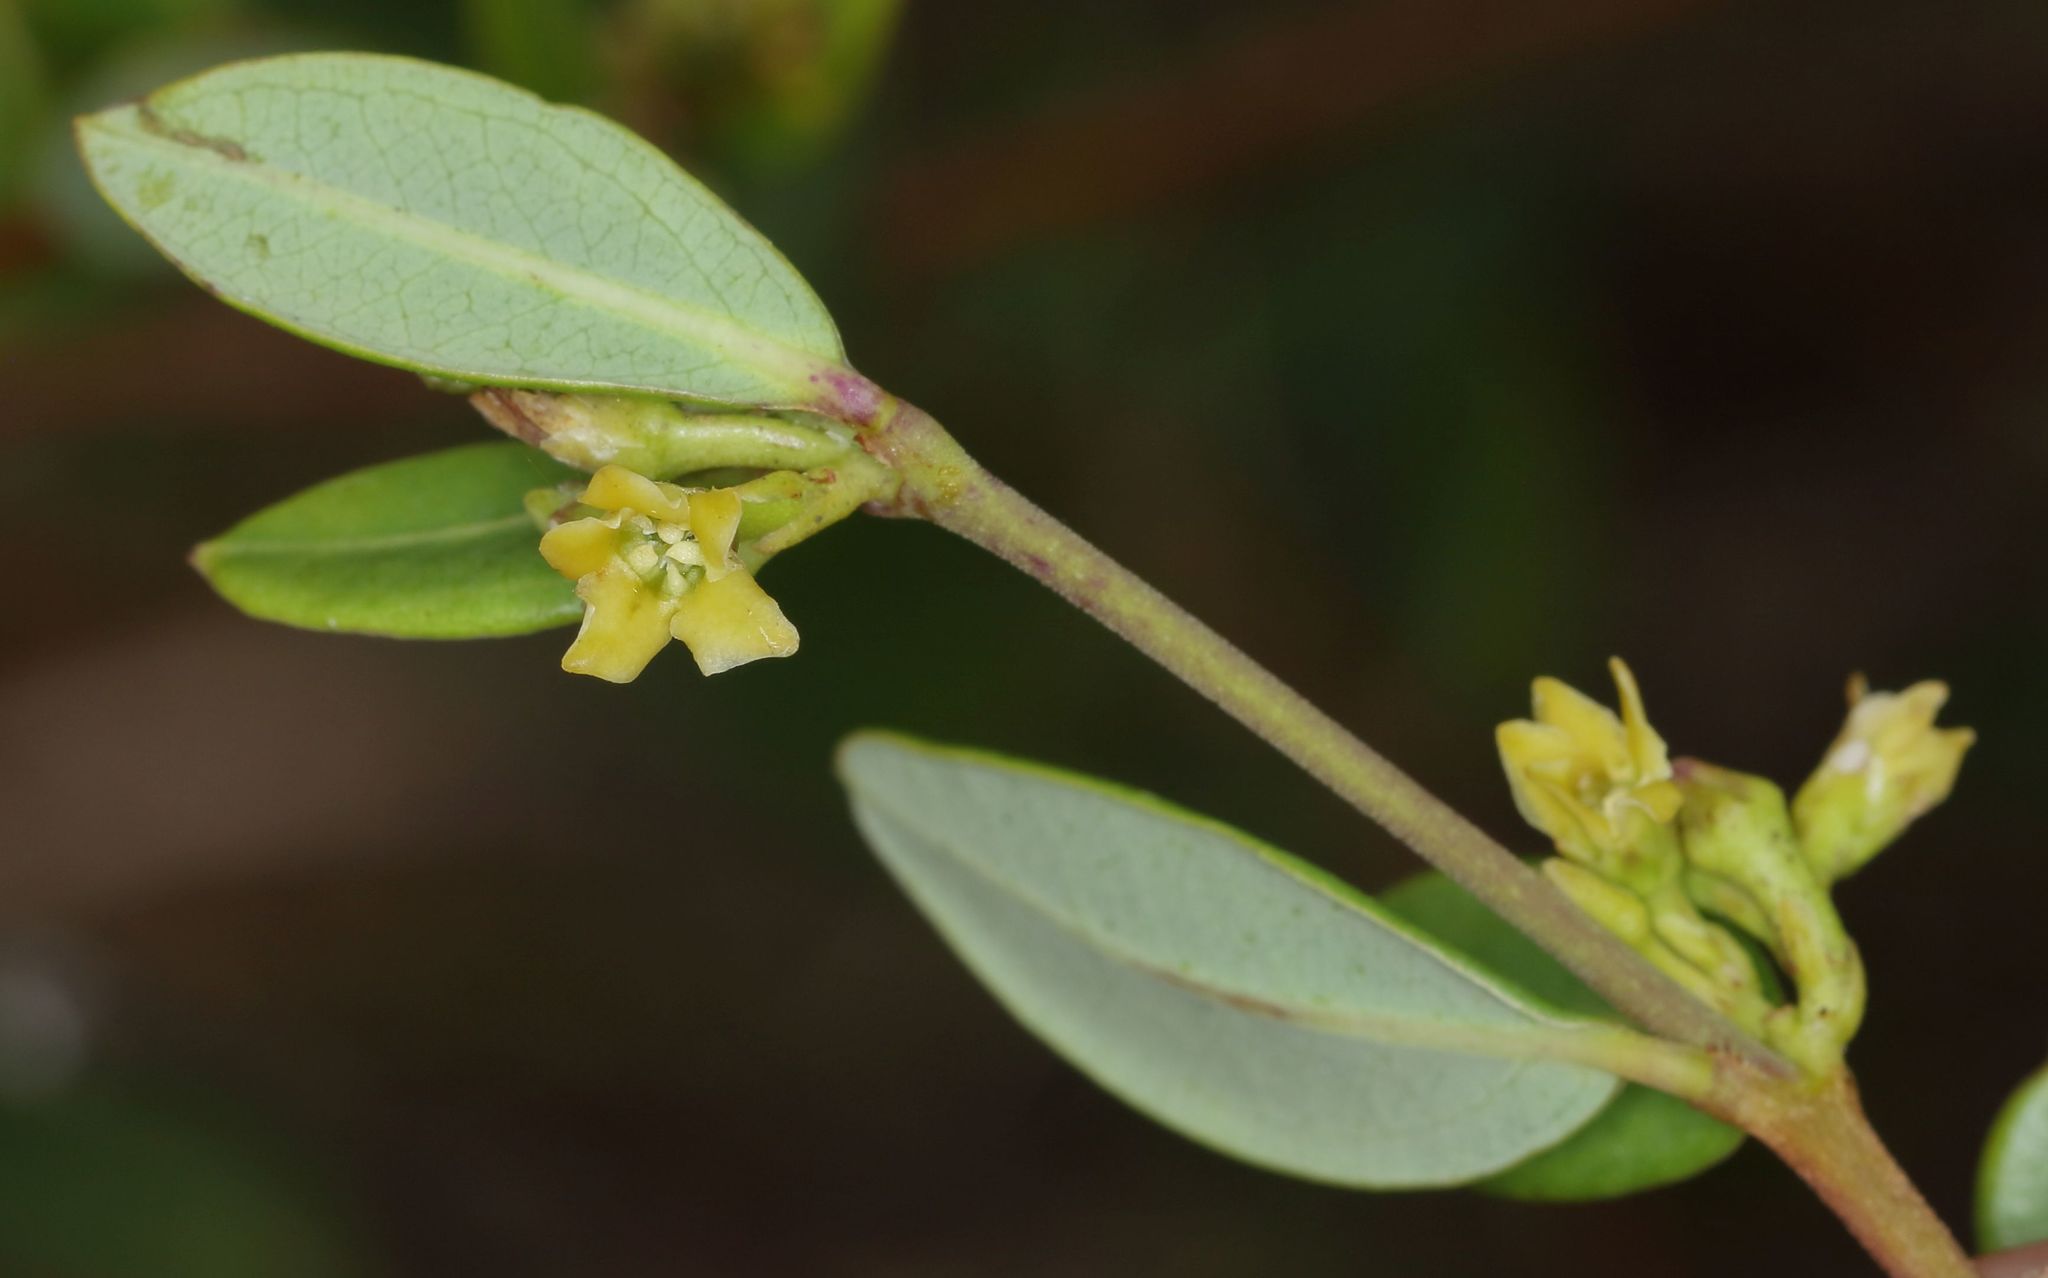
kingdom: Plantae
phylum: Tracheophyta
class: Magnoliopsida
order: Gentianales
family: Apocynaceae
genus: Cryptolepis
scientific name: Cryptolepis oblongifolia
